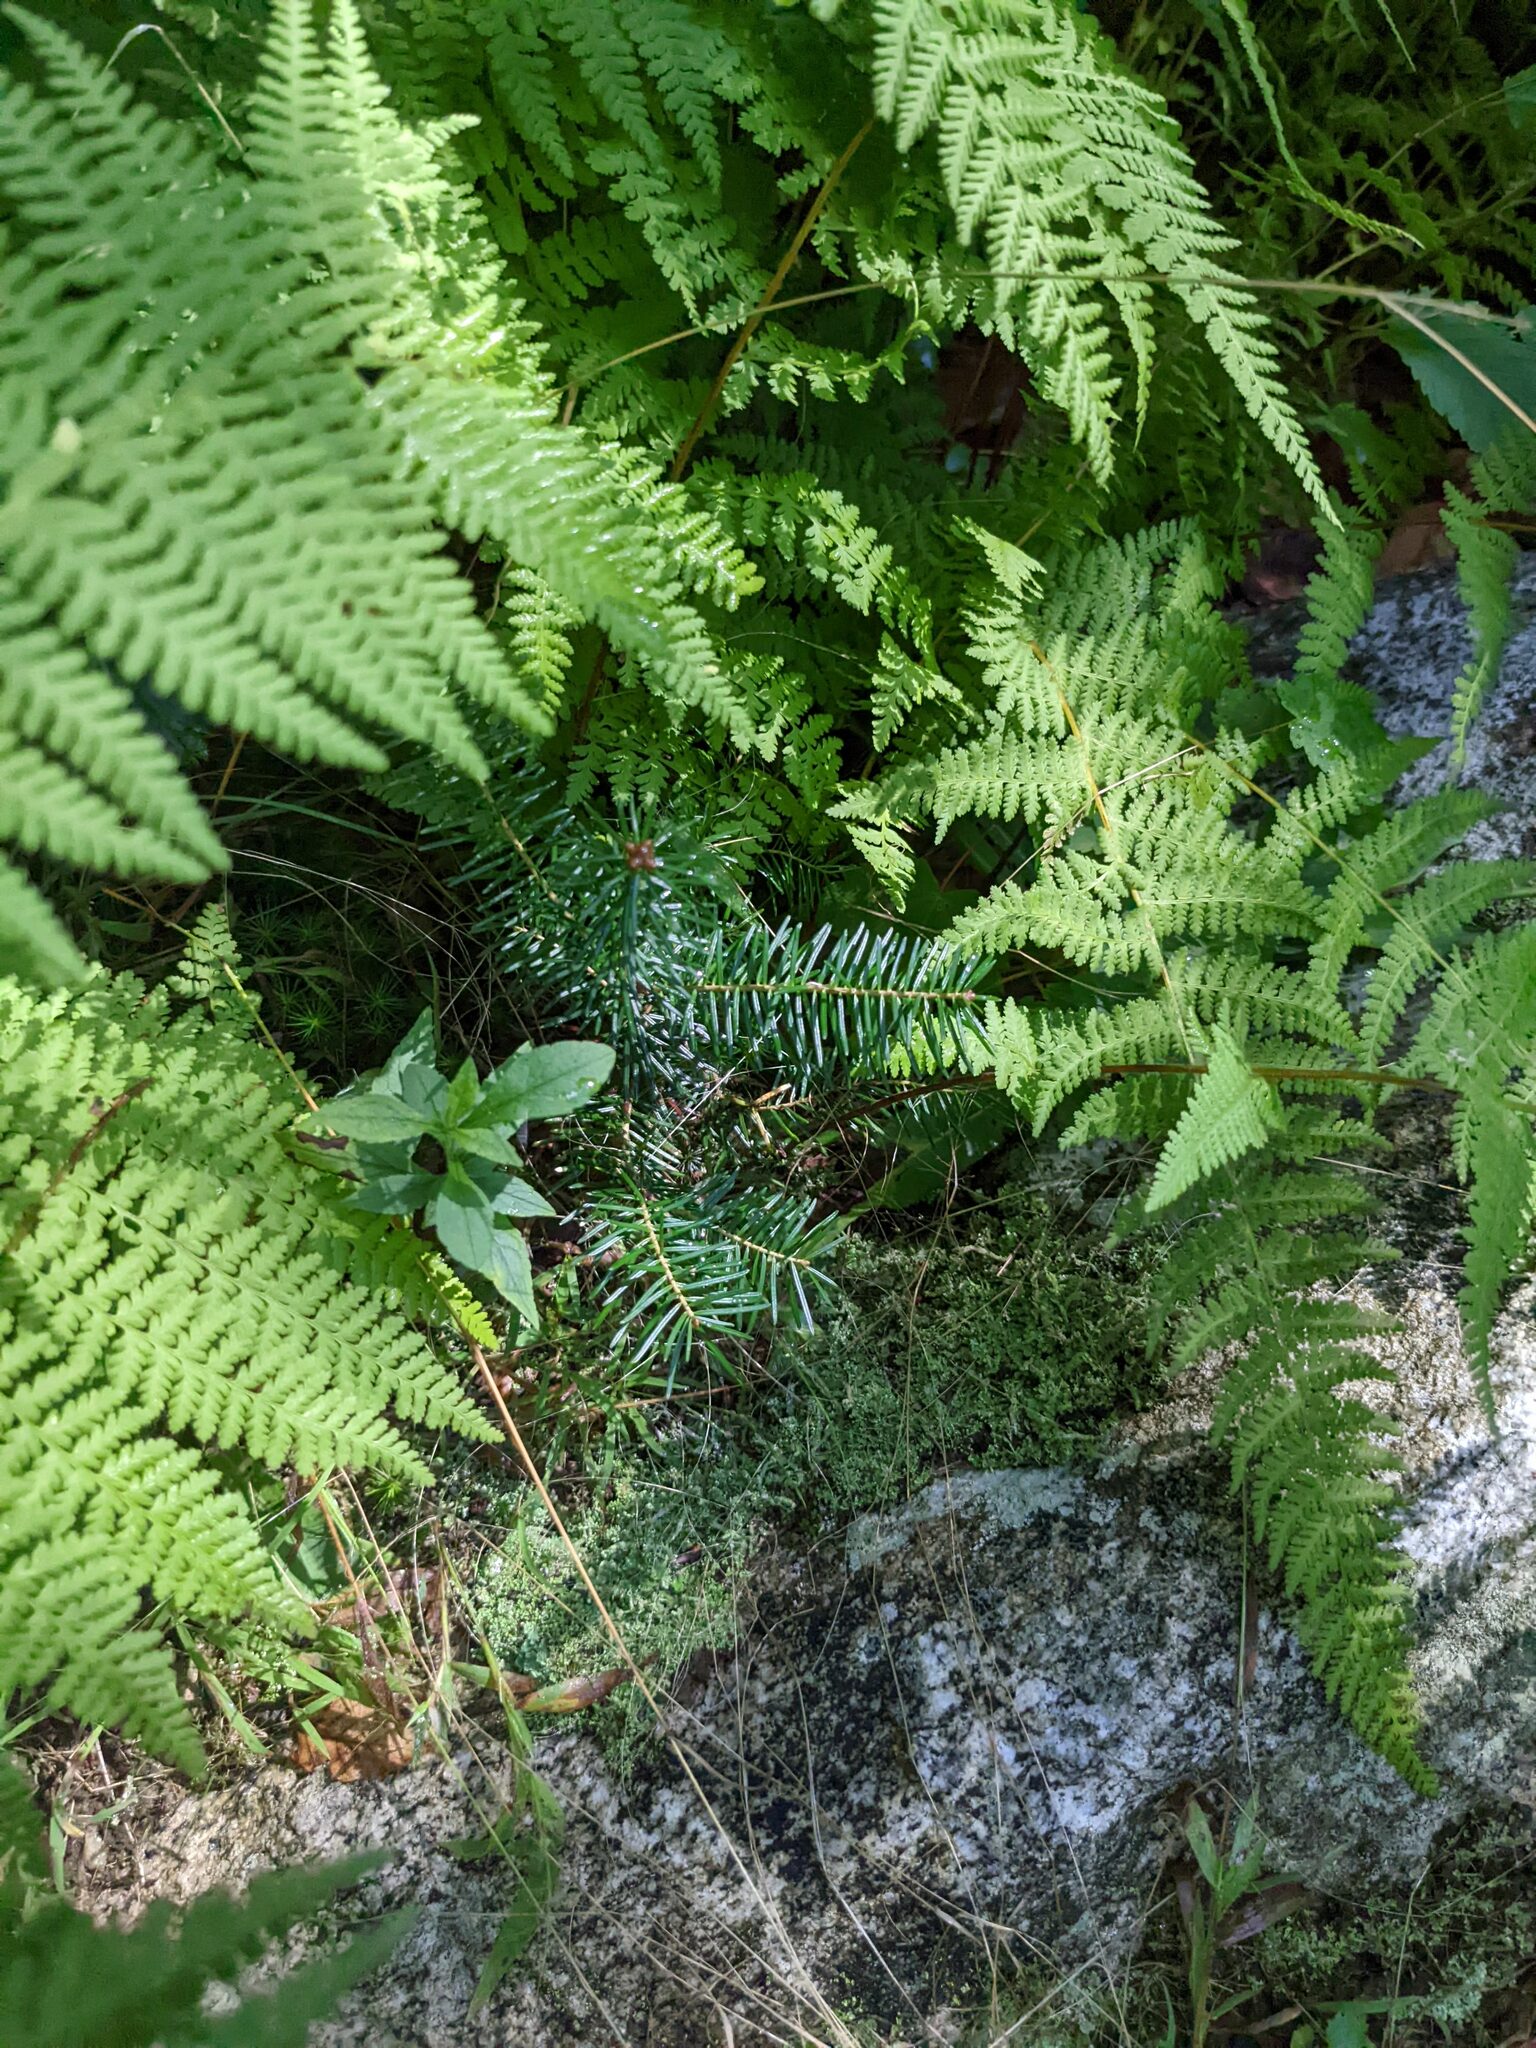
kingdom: Plantae
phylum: Tracheophyta
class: Pinopsida
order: Pinales
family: Pinaceae
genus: Abies
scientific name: Abies balsamea
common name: Balsam fir
